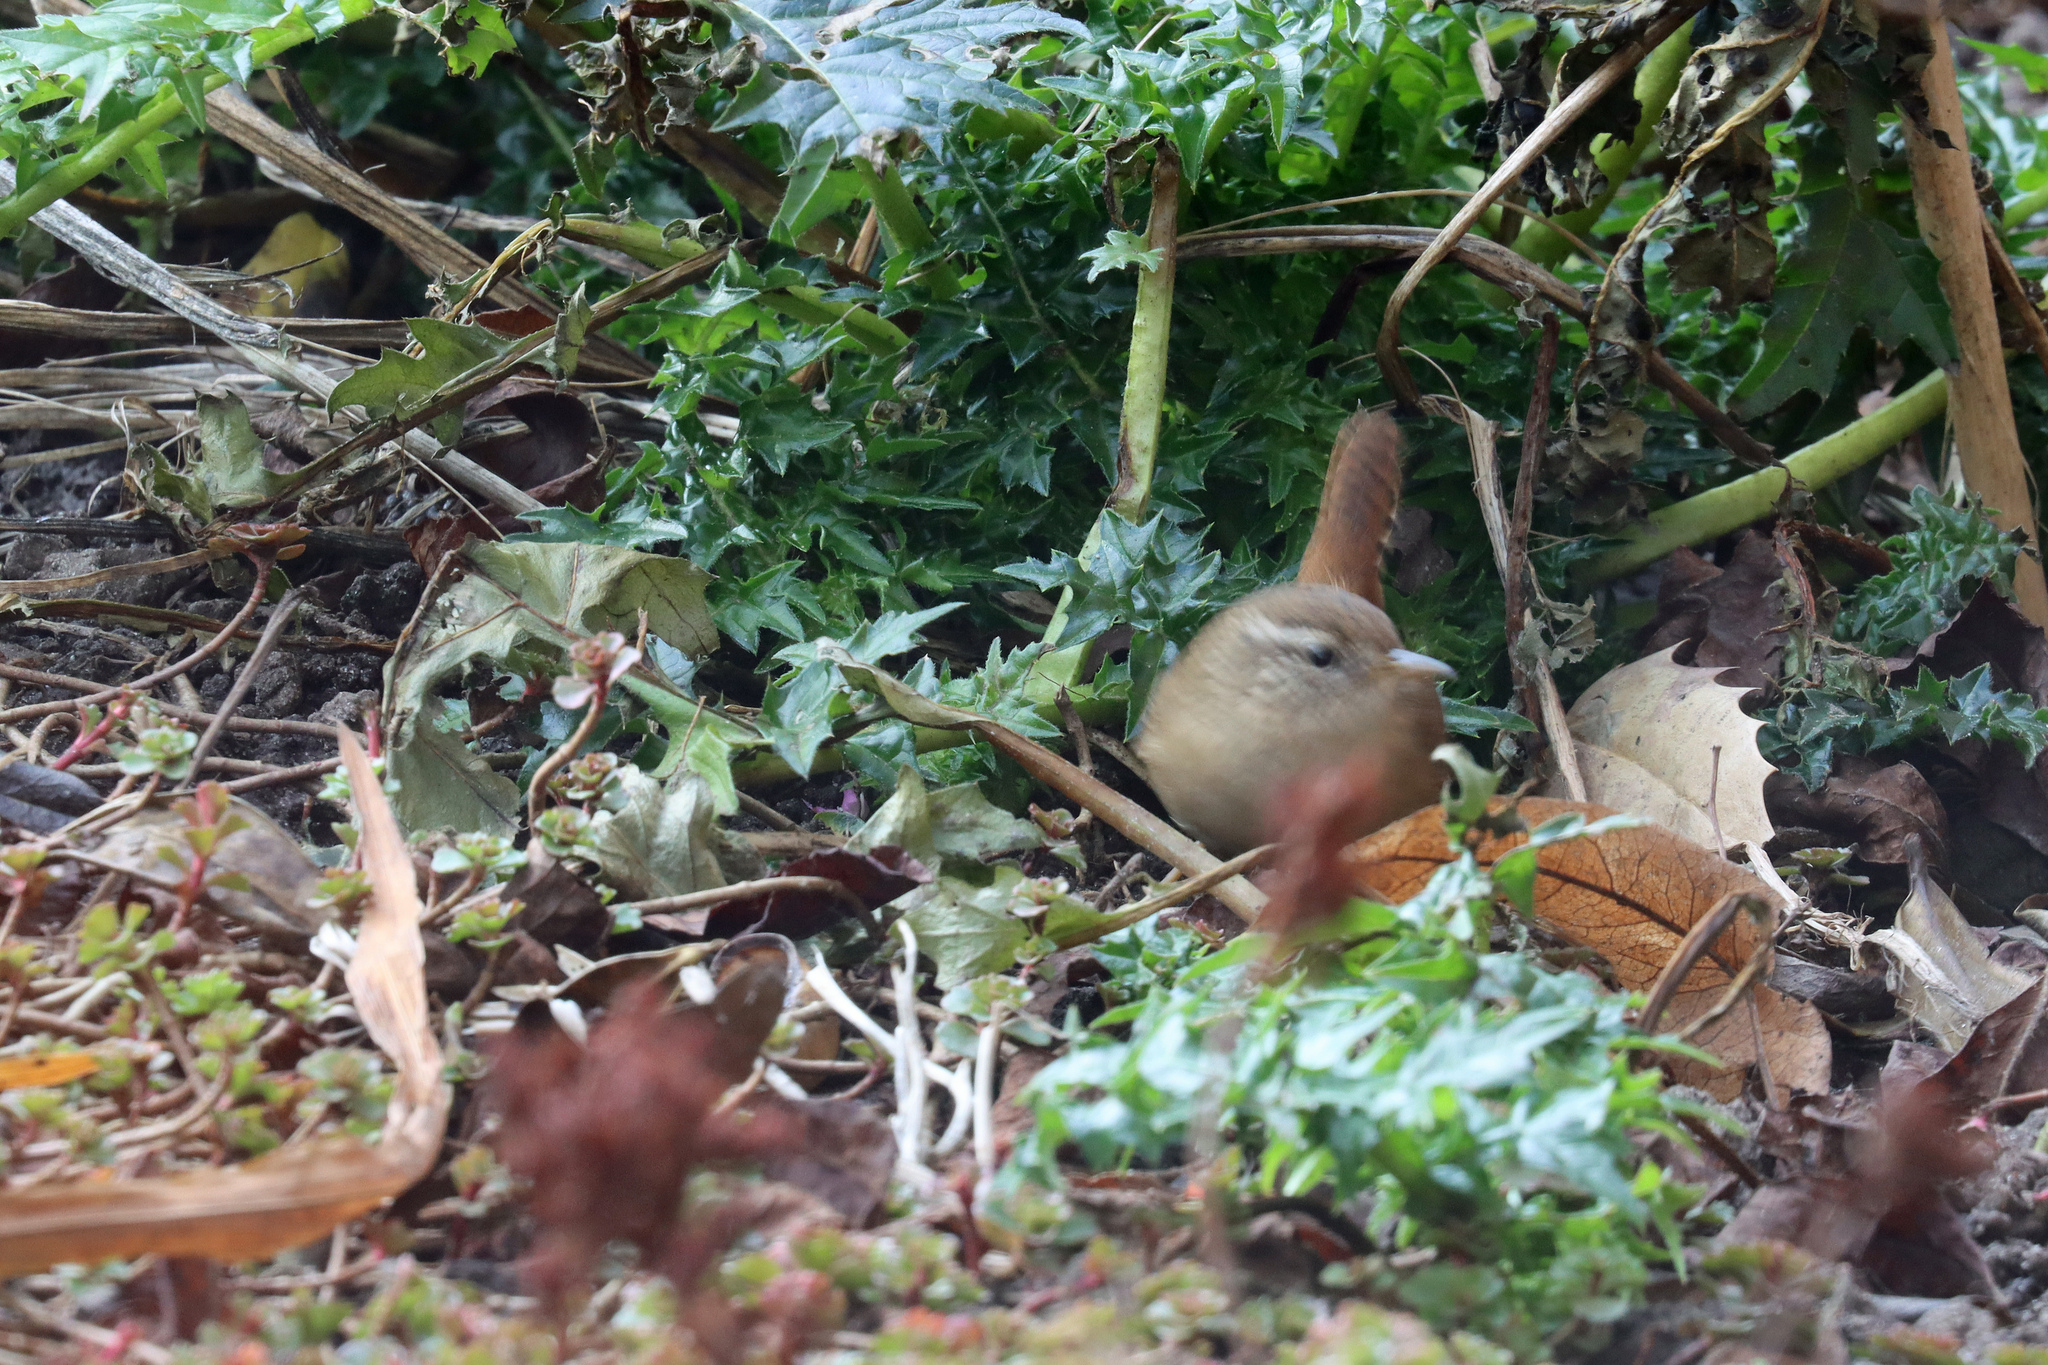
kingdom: Animalia
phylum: Chordata
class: Aves
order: Passeriformes
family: Troglodytidae
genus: Troglodytes
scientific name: Troglodytes troglodytes
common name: Eurasian wren
